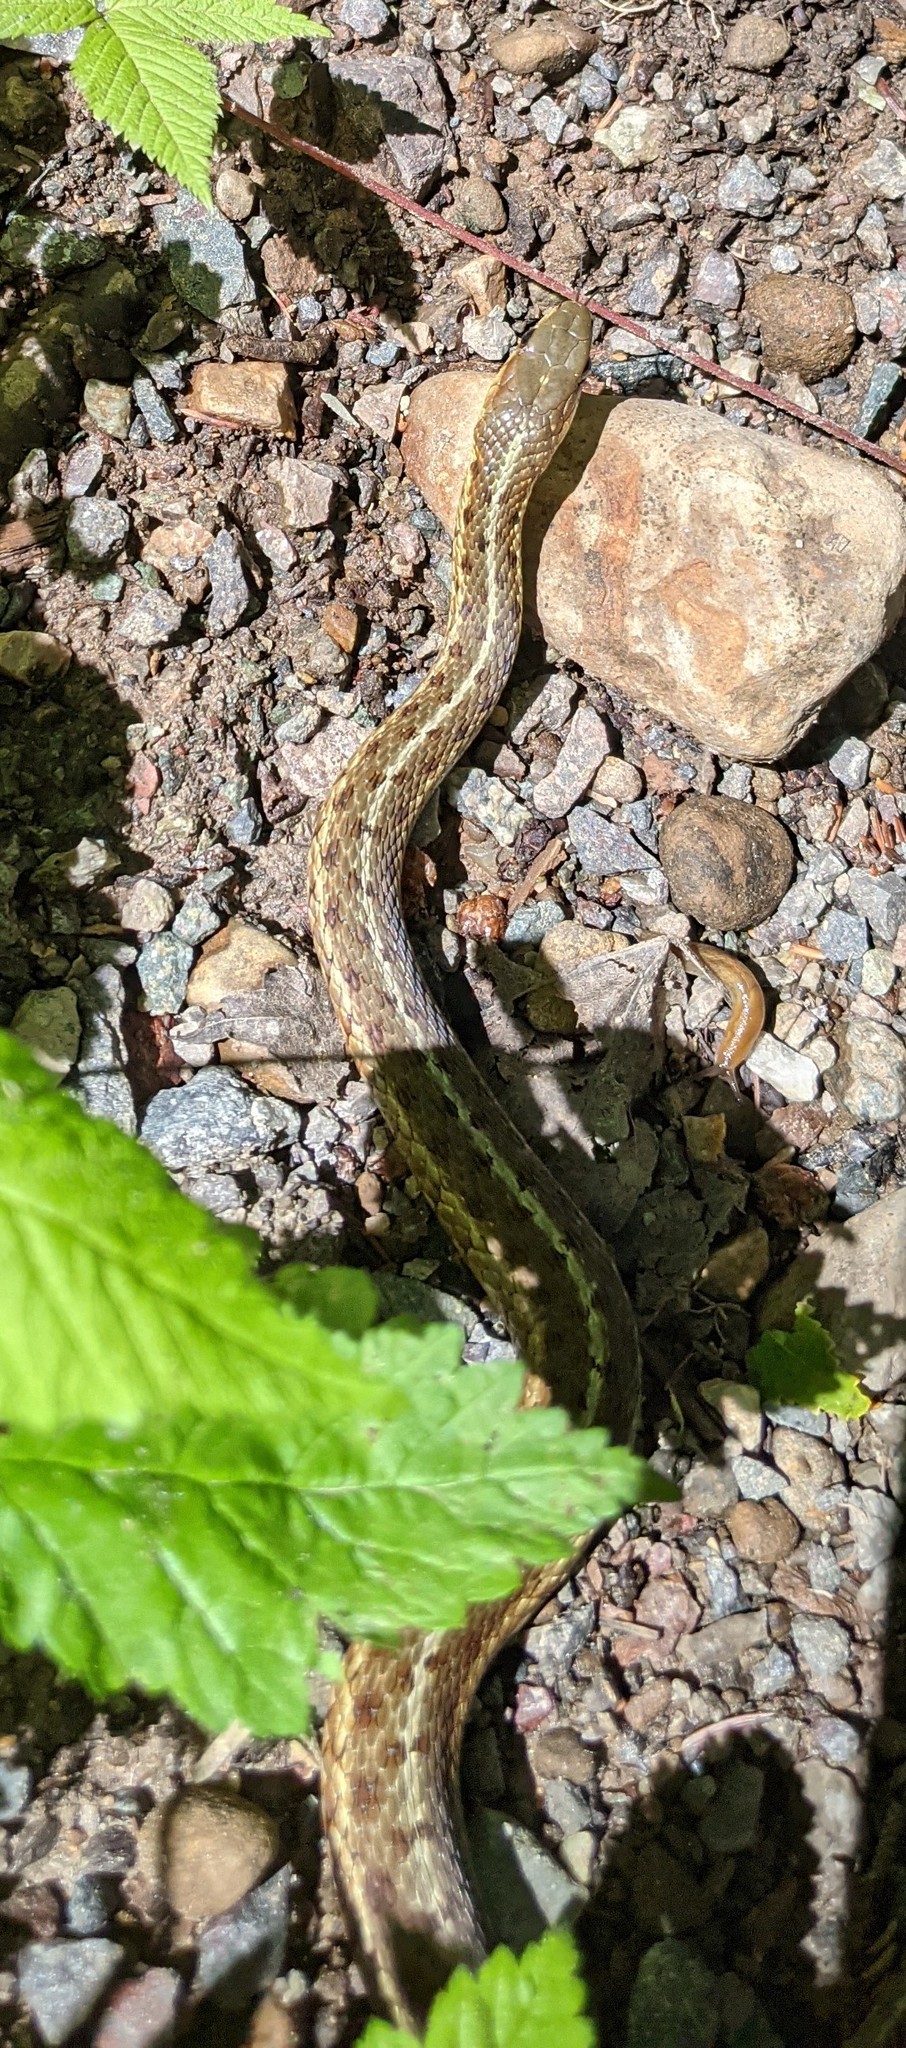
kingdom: Animalia
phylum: Chordata
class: Squamata
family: Colubridae
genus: Thamnophis
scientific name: Thamnophis sirtalis
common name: Common garter snake
